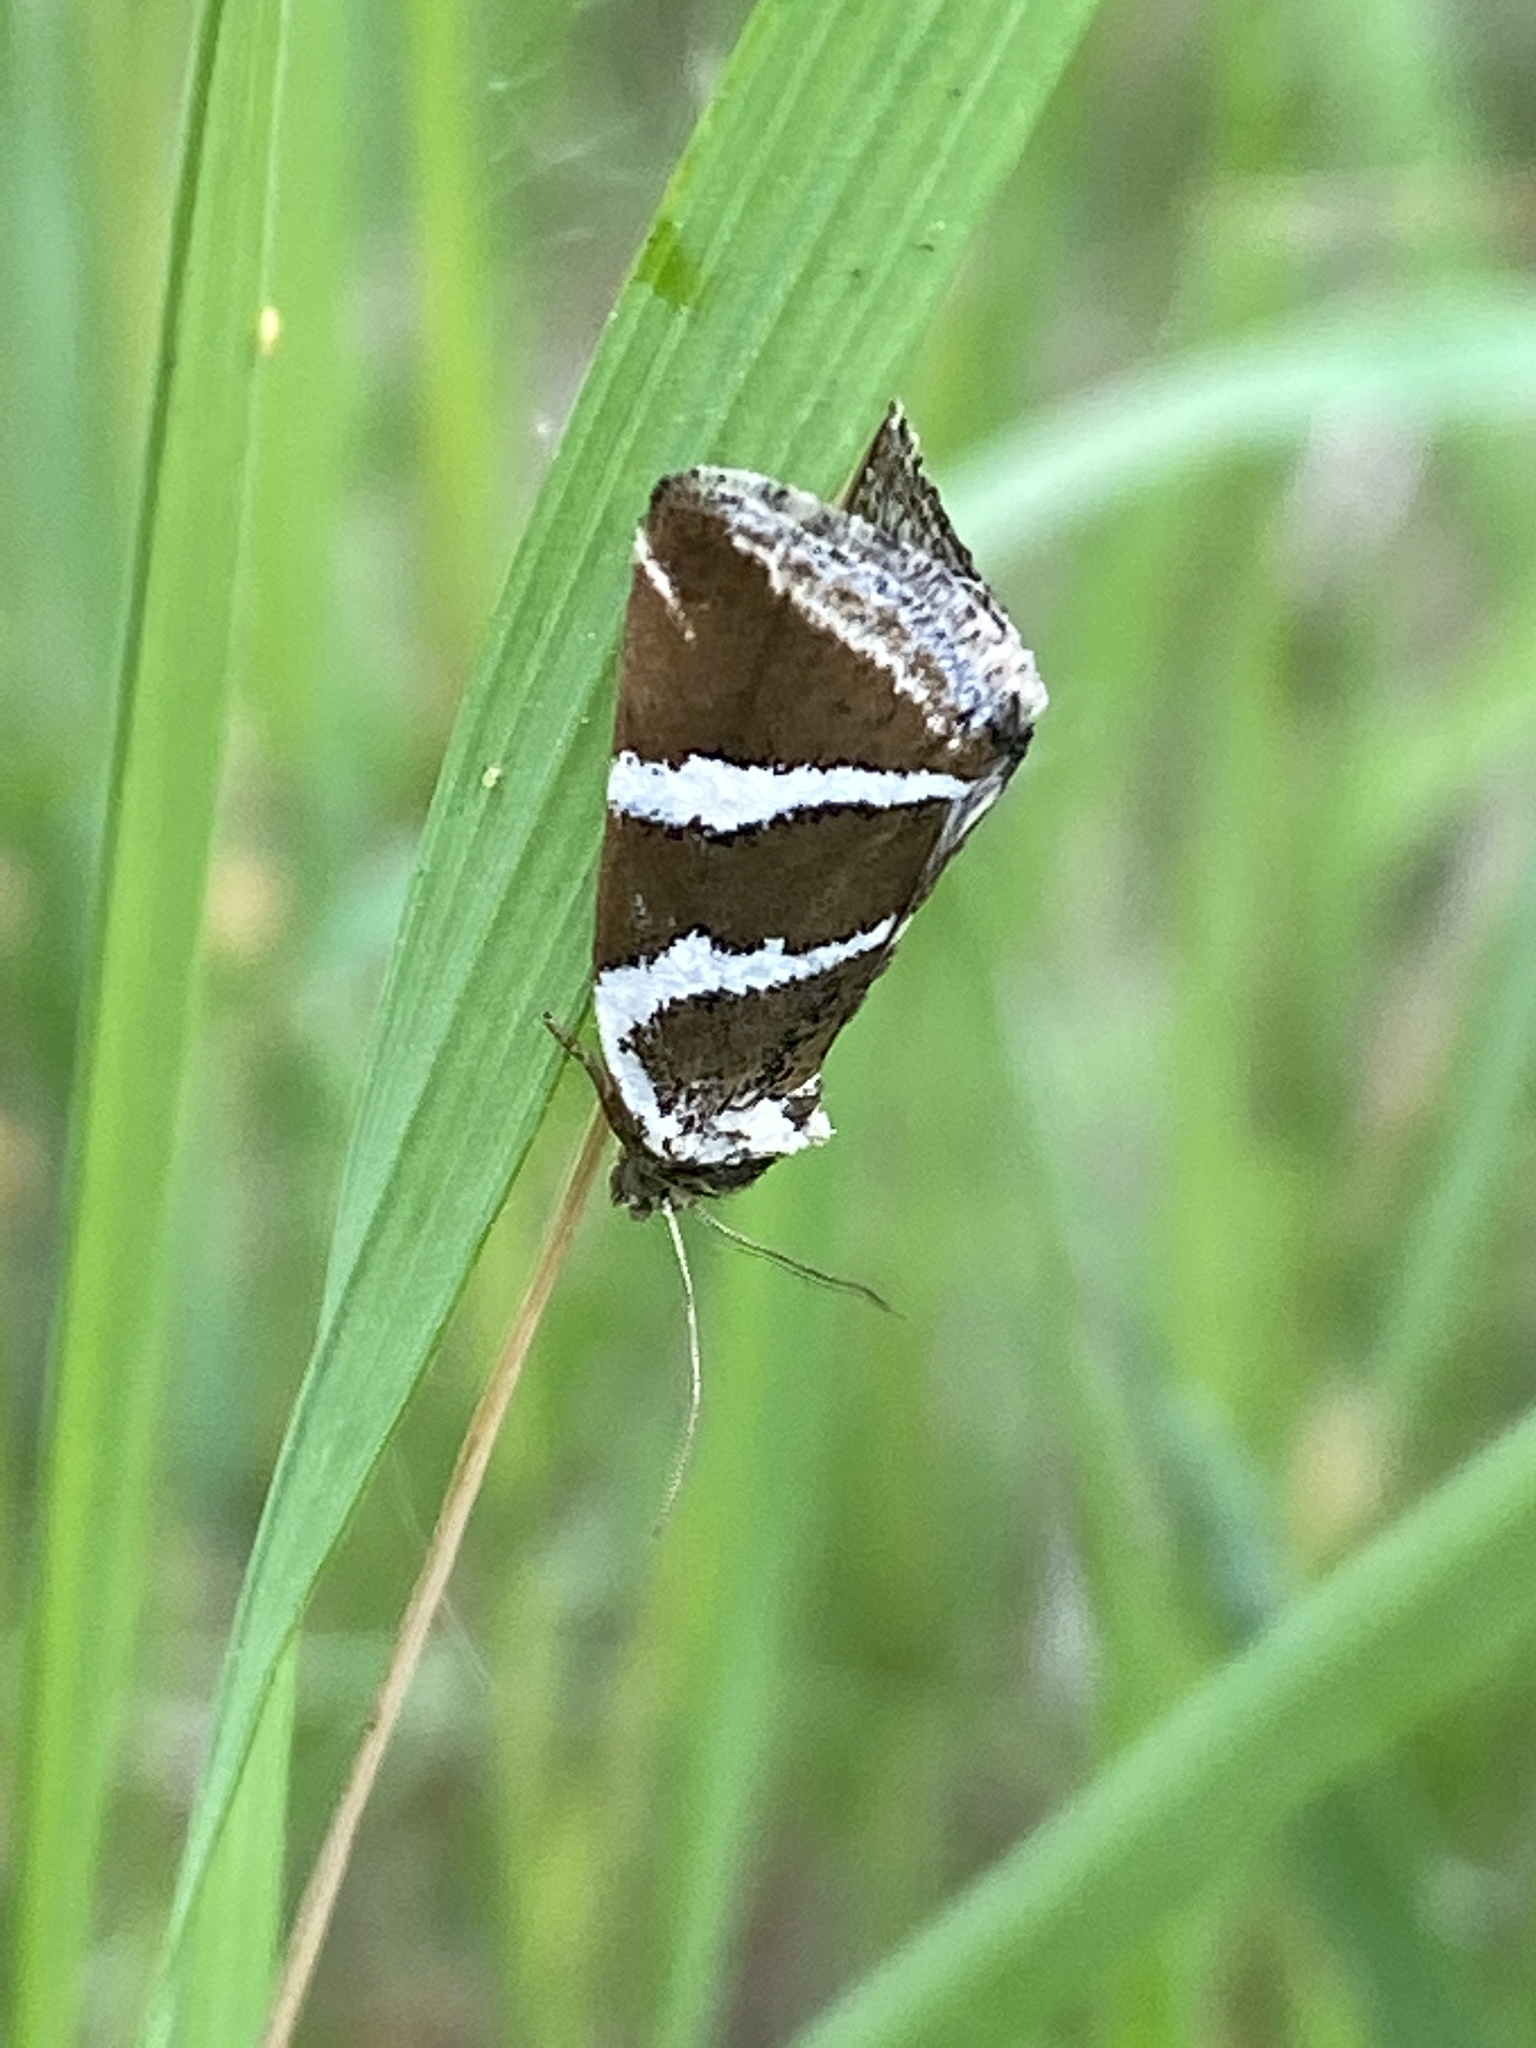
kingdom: Animalia
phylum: Arthropoda
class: Insecta
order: Lepidoptera
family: Noctuidae
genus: Deltote
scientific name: Deltote bankiana
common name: Silver barred
